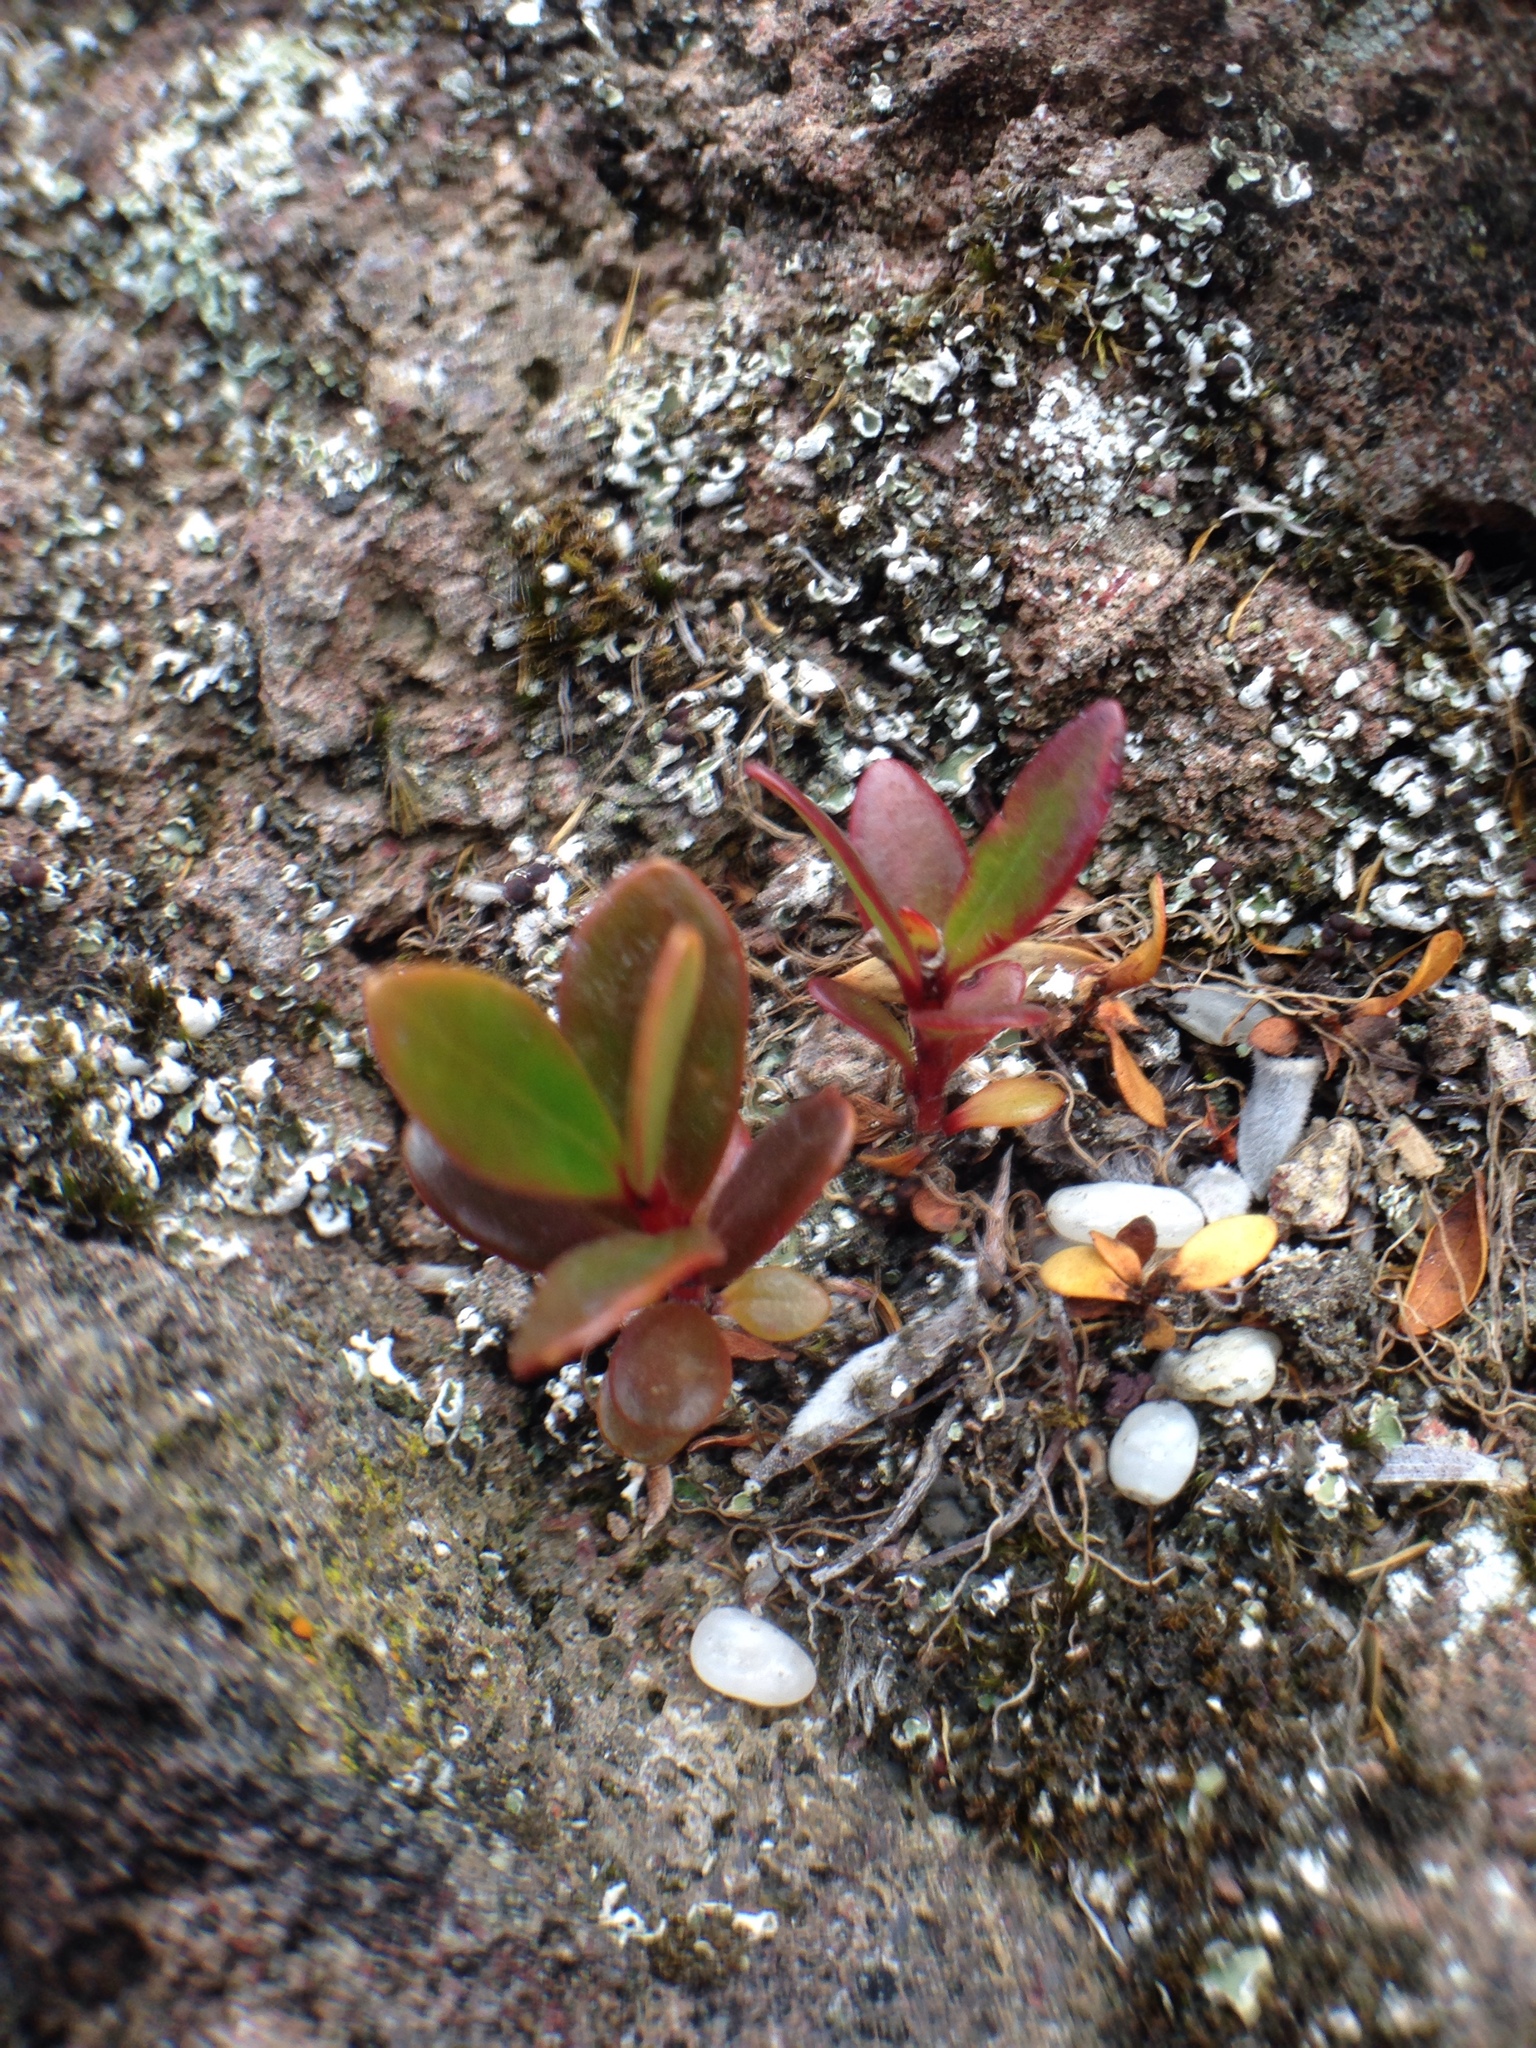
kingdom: Plantae
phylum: Tracheophyta
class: Magnoliopsida
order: Myrtales
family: Myrtaceae
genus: Metrosideros
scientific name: Metrosideros excelsa
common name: New zealand christmastree
